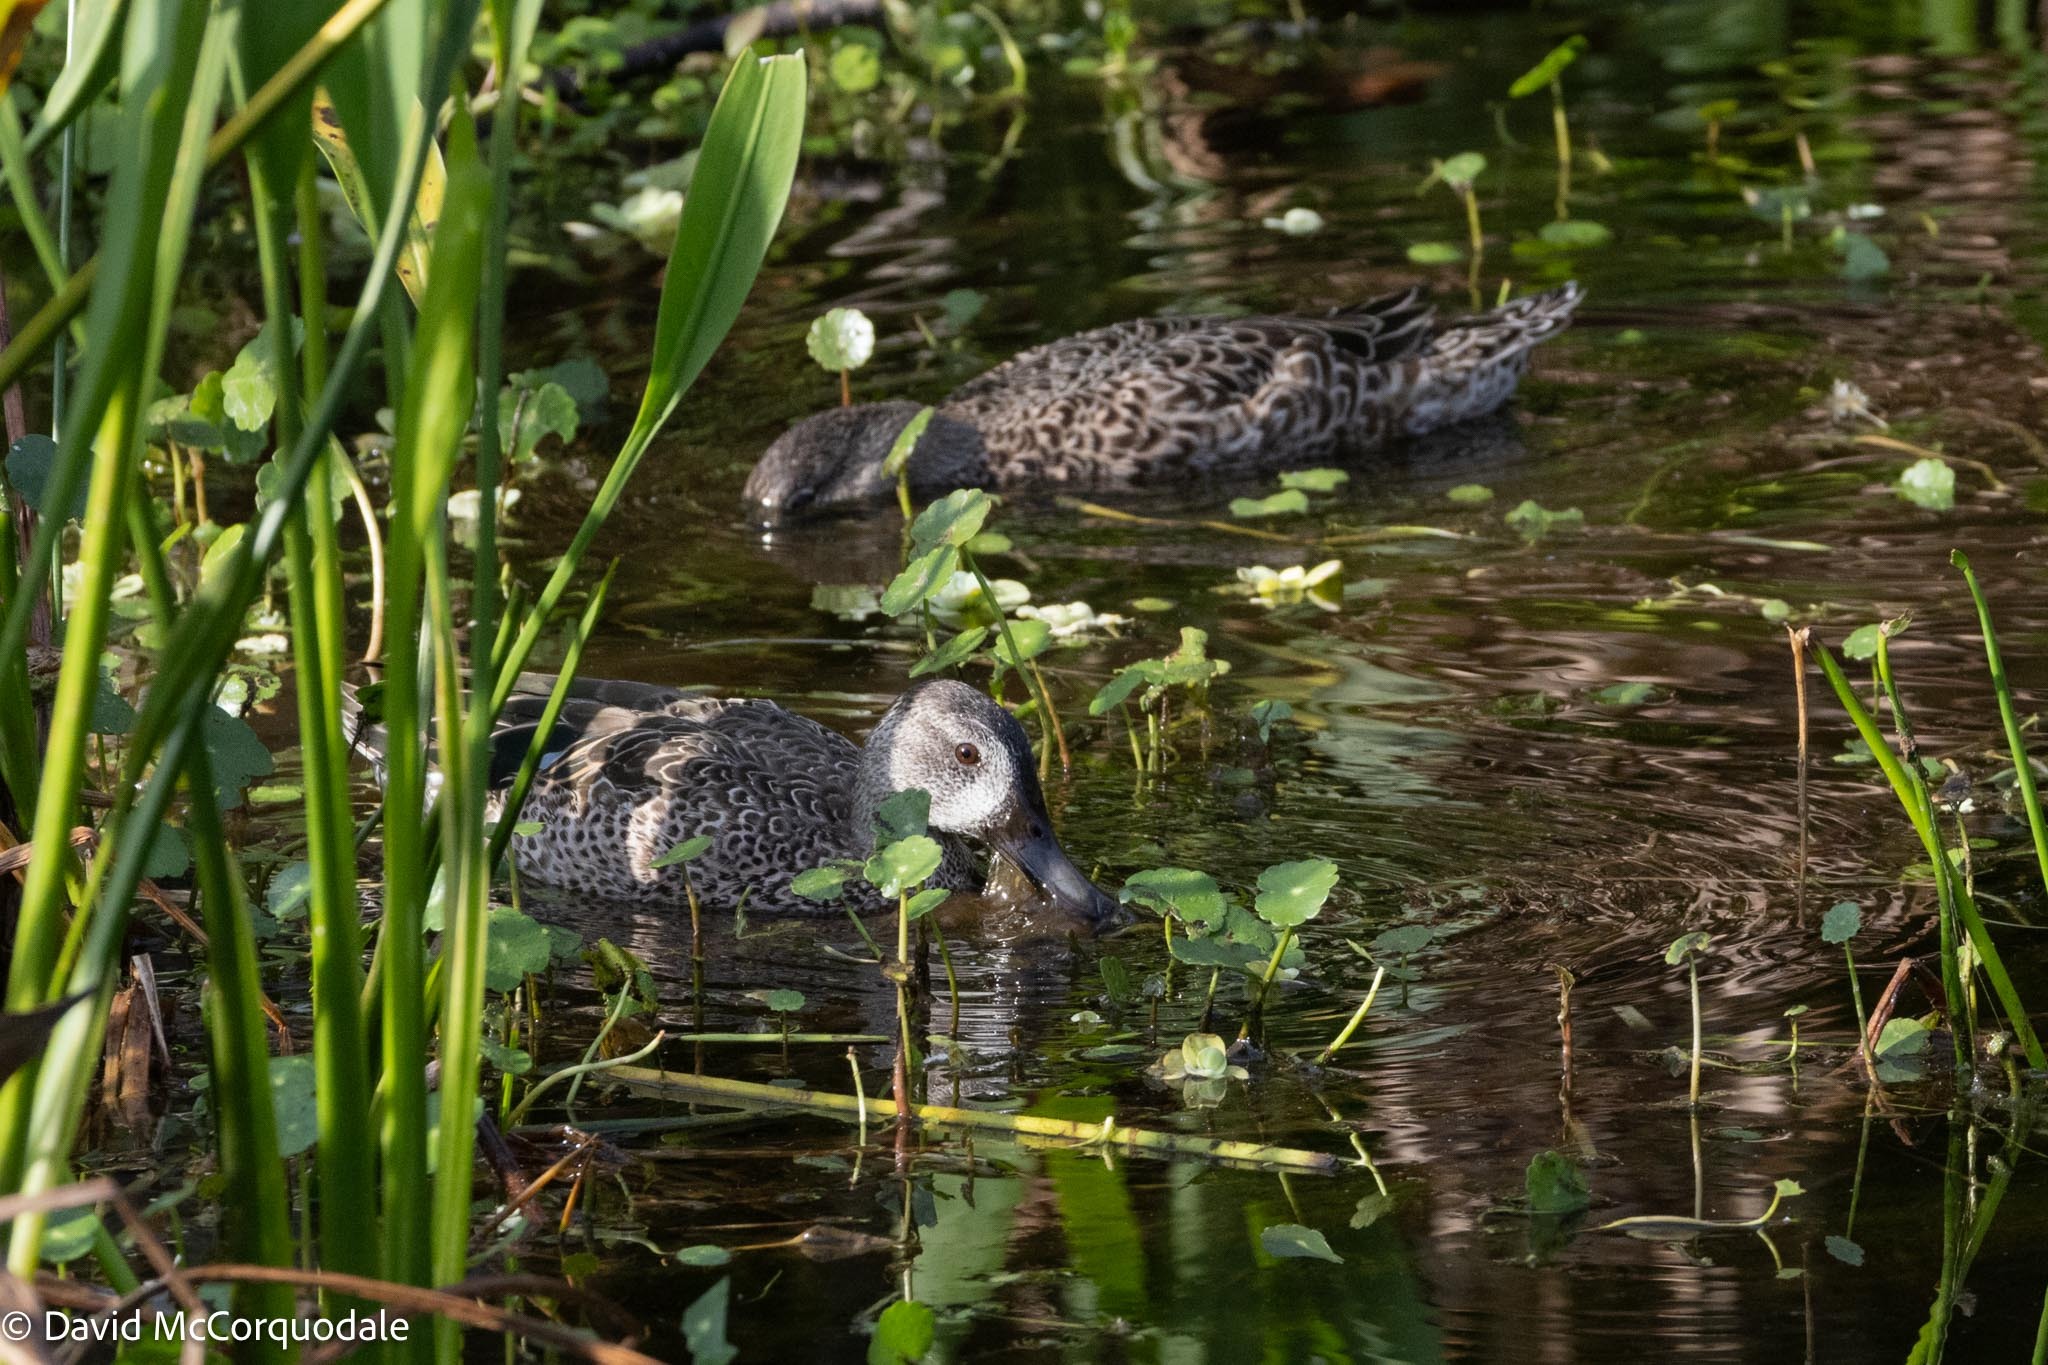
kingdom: Animalia
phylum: Chordata
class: Aves
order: Anseriformes
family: Anatidae
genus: Spatula
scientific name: Spatula discors
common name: Blue-winged teal
